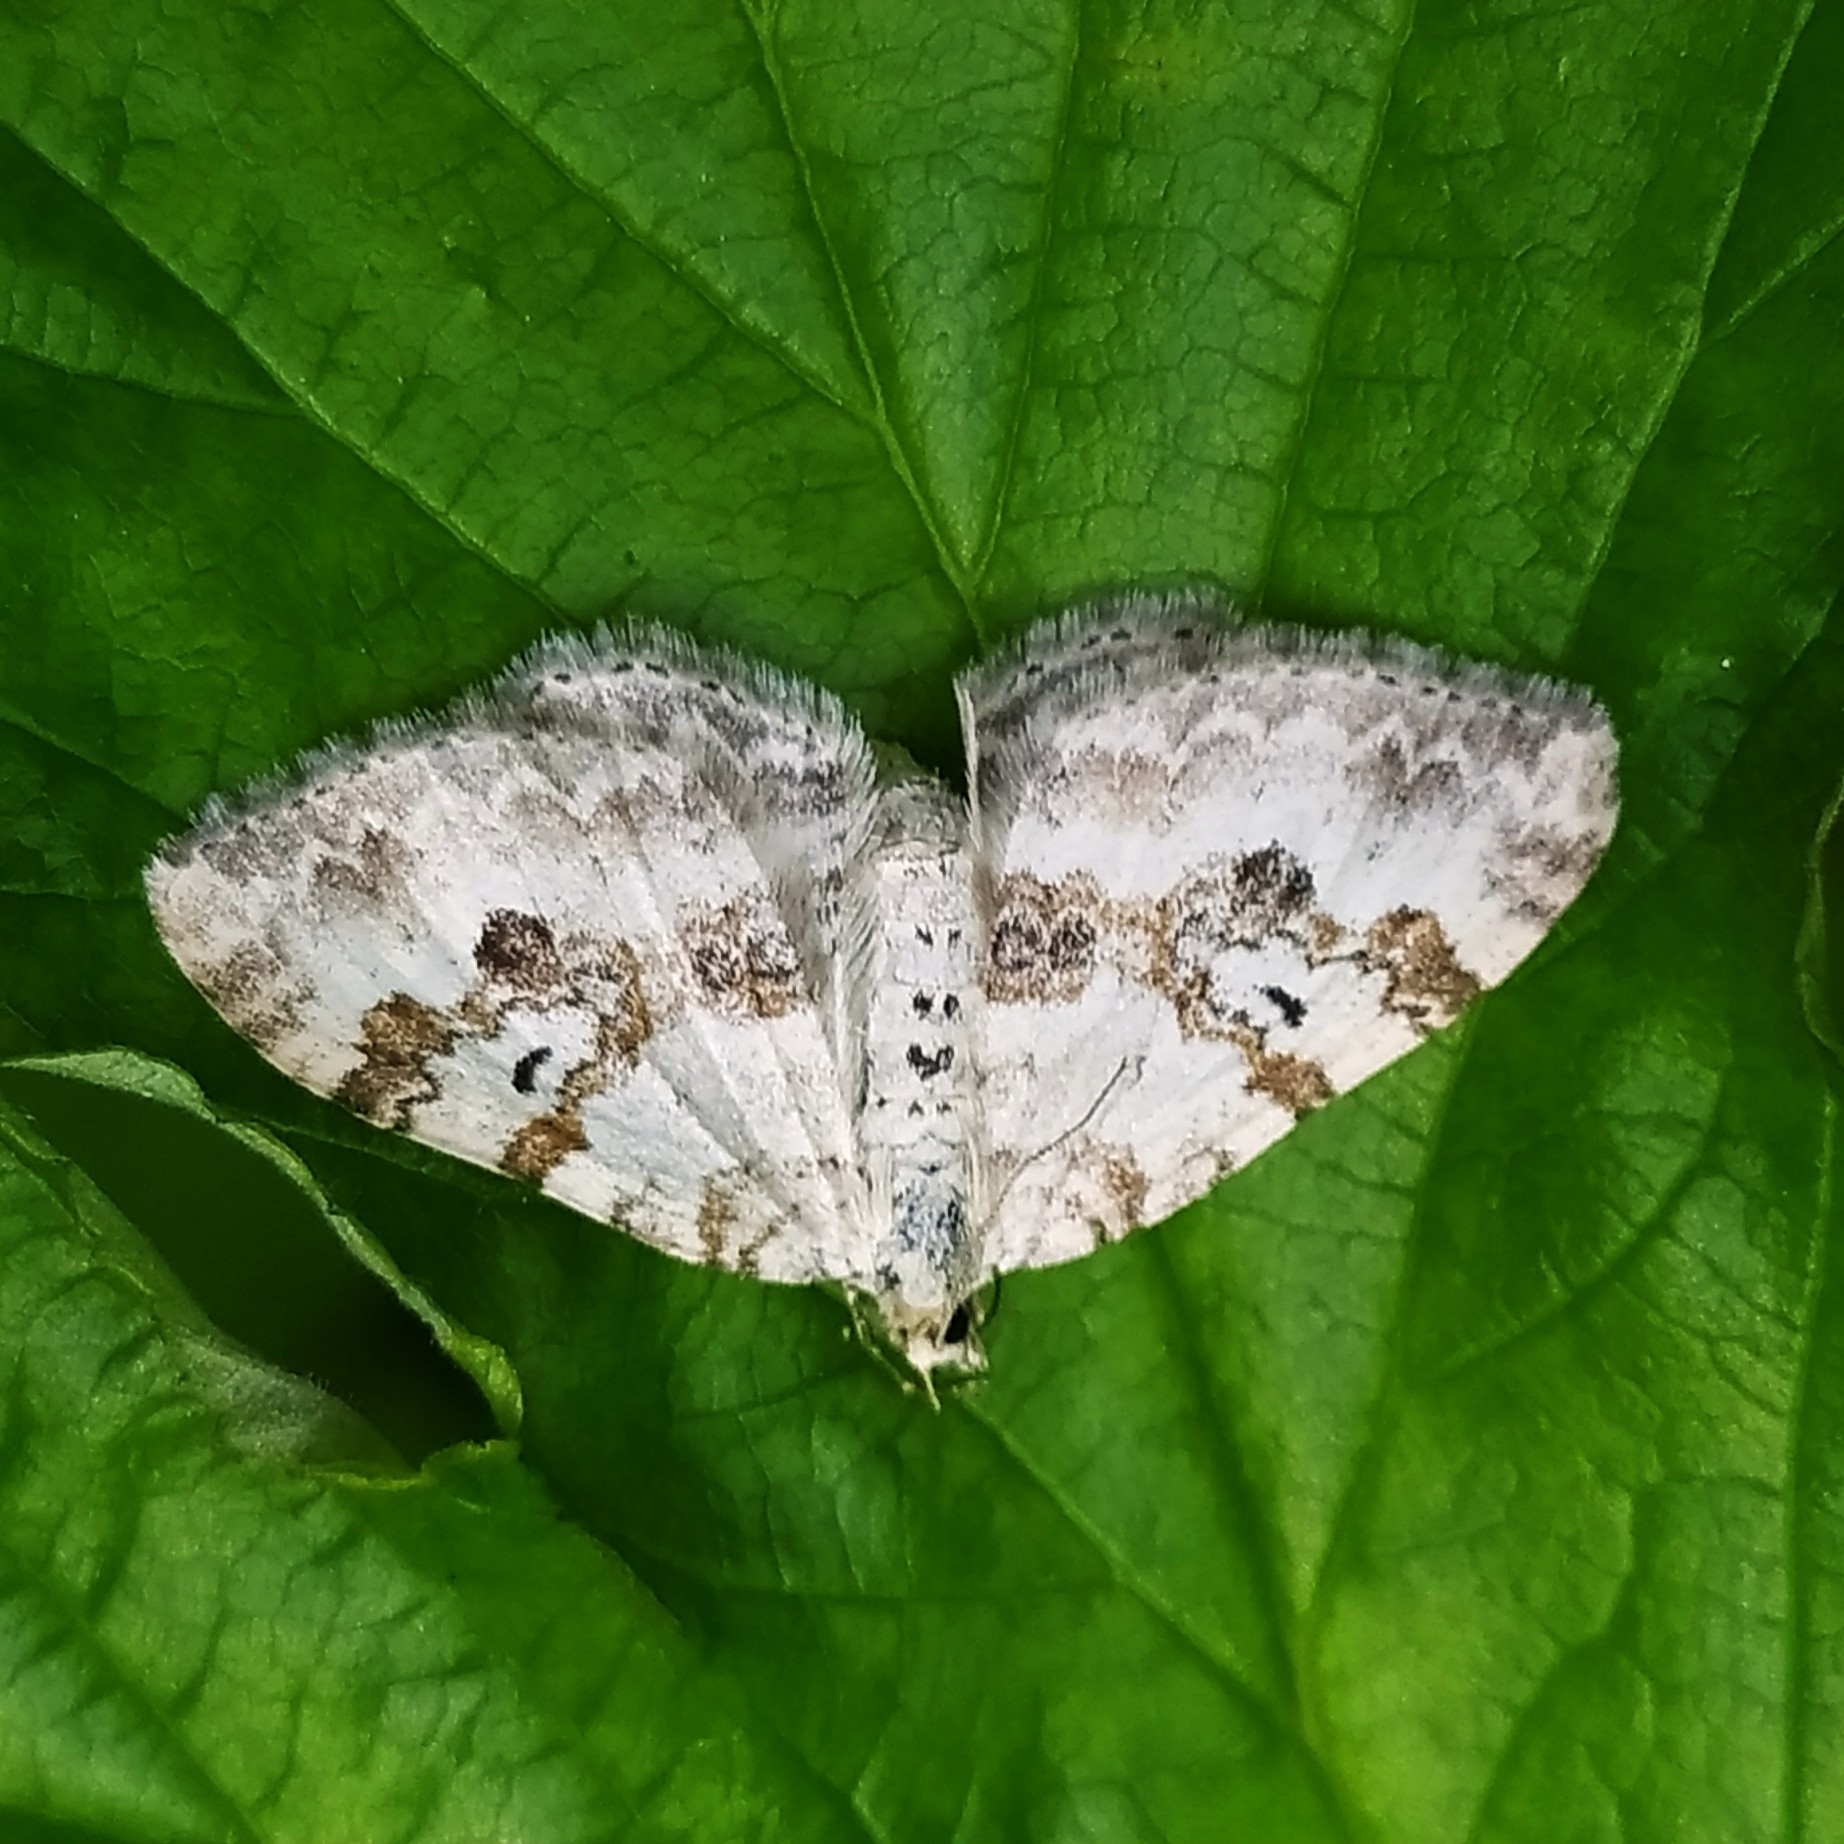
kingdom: Animalia
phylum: Arthropoda
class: Insecta
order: Lepidoptera
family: Geometridae
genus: Xanthorhoe
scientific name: Xanthorhoe montanata
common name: Silver-ground carpet
